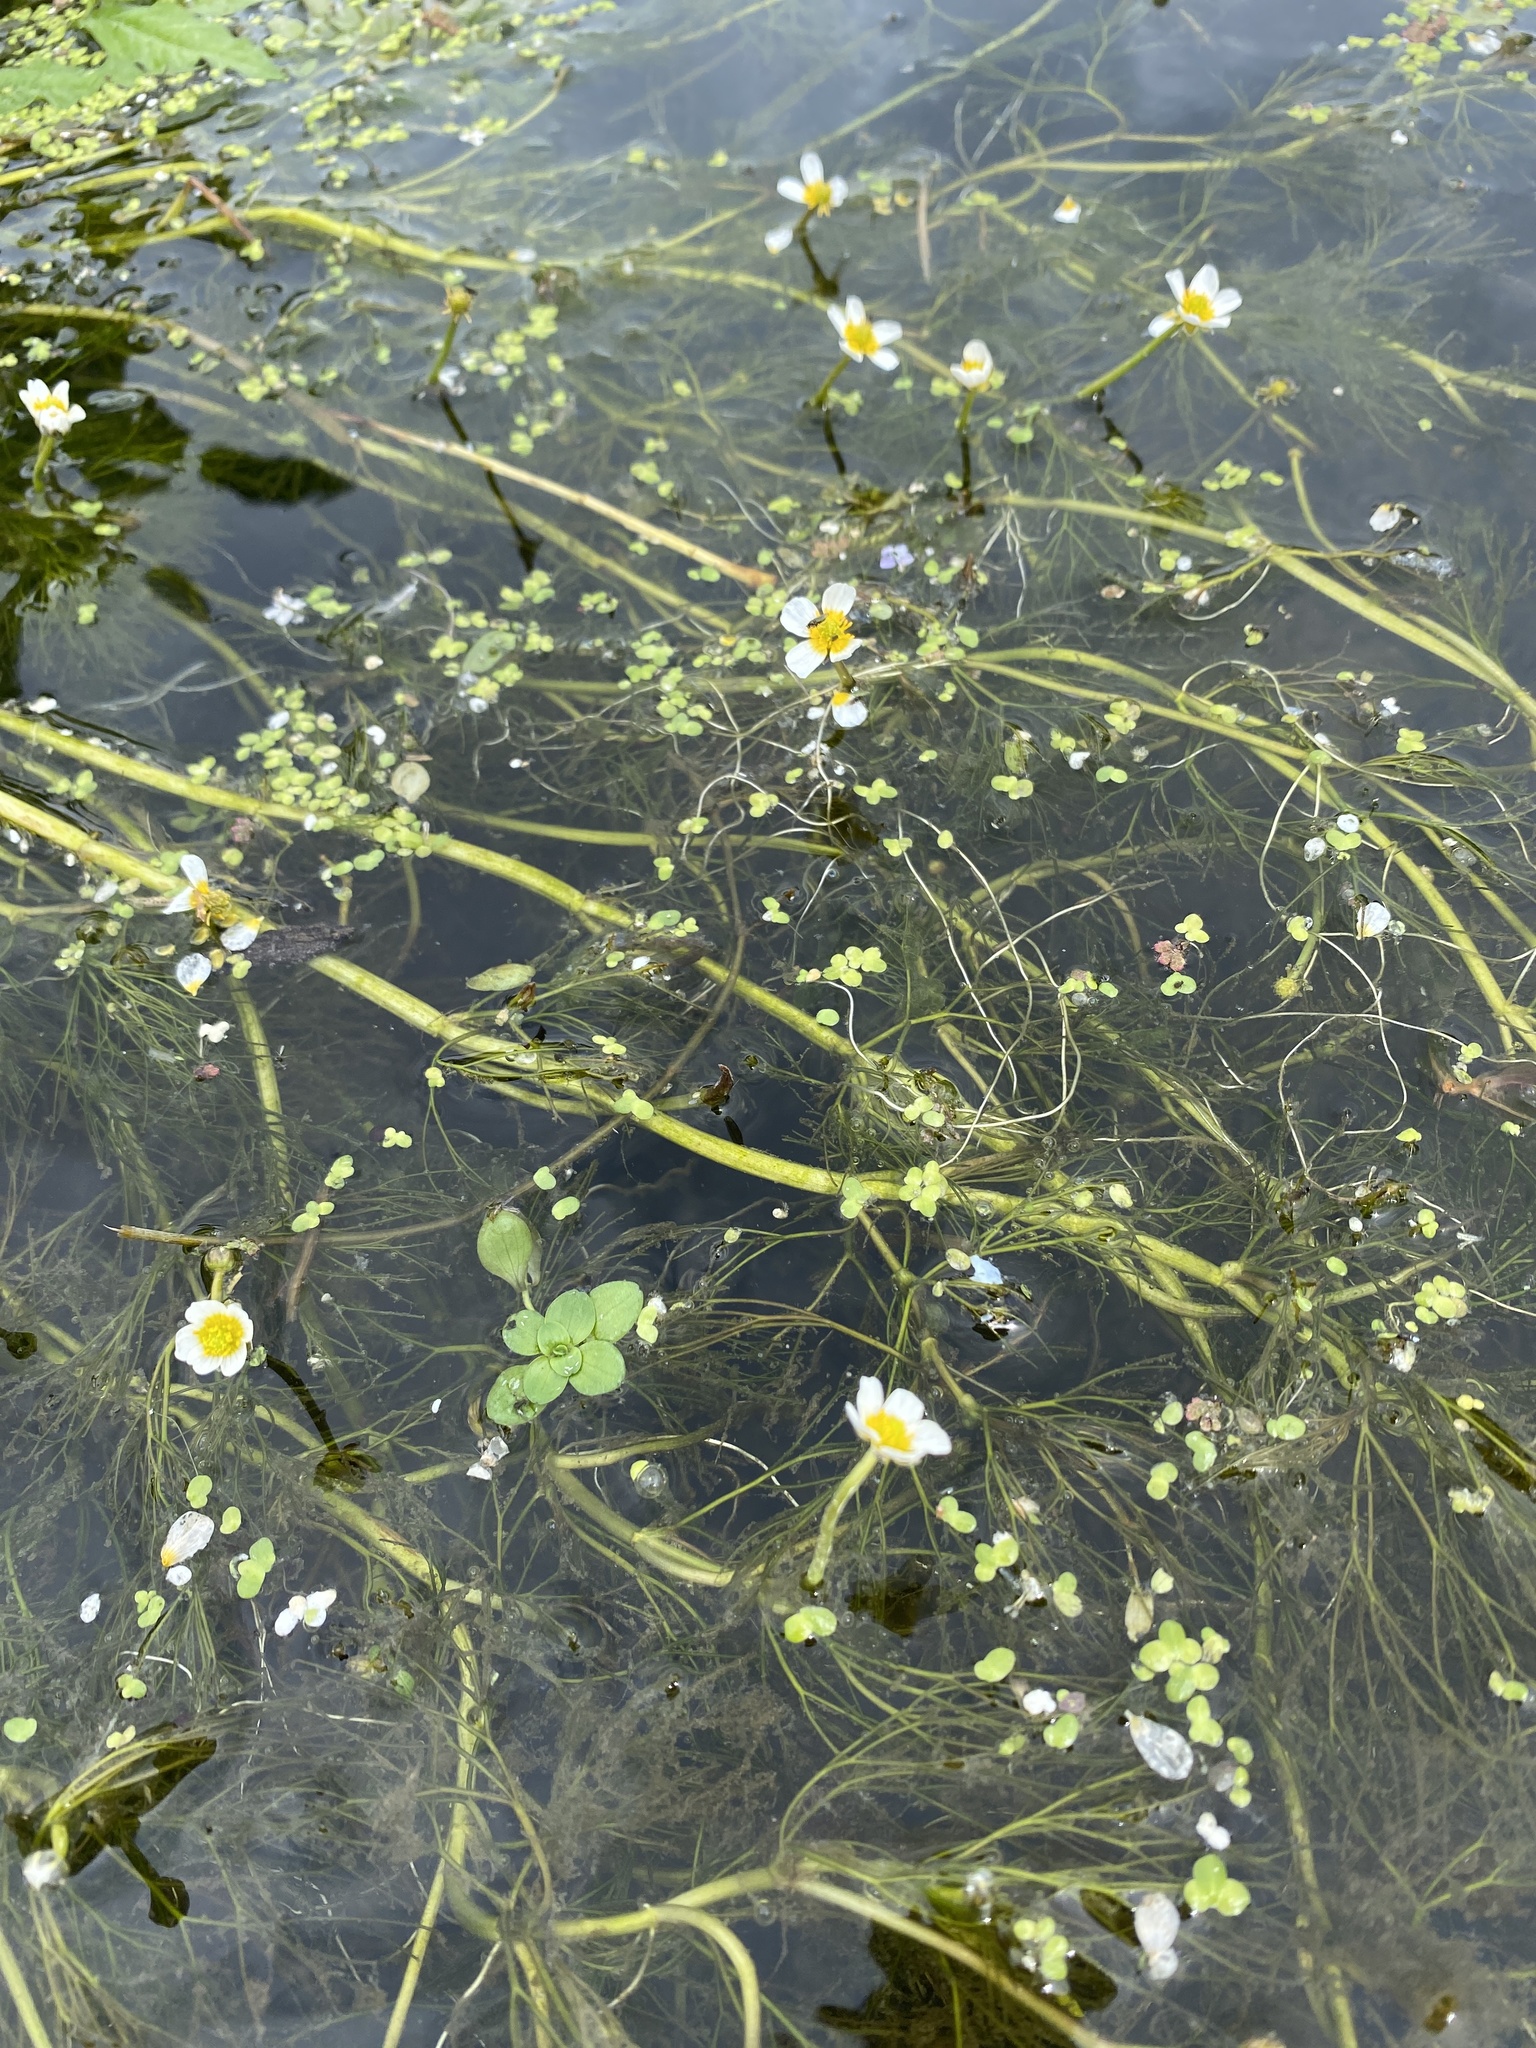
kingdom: Plantae
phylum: Tracheophyta
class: Magnoliopsida
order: Ranunculales
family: Ranunculaceae
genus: Ranunculus
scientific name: Ranunculus trichophyllus
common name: Thread-leaved water-crowfoot
